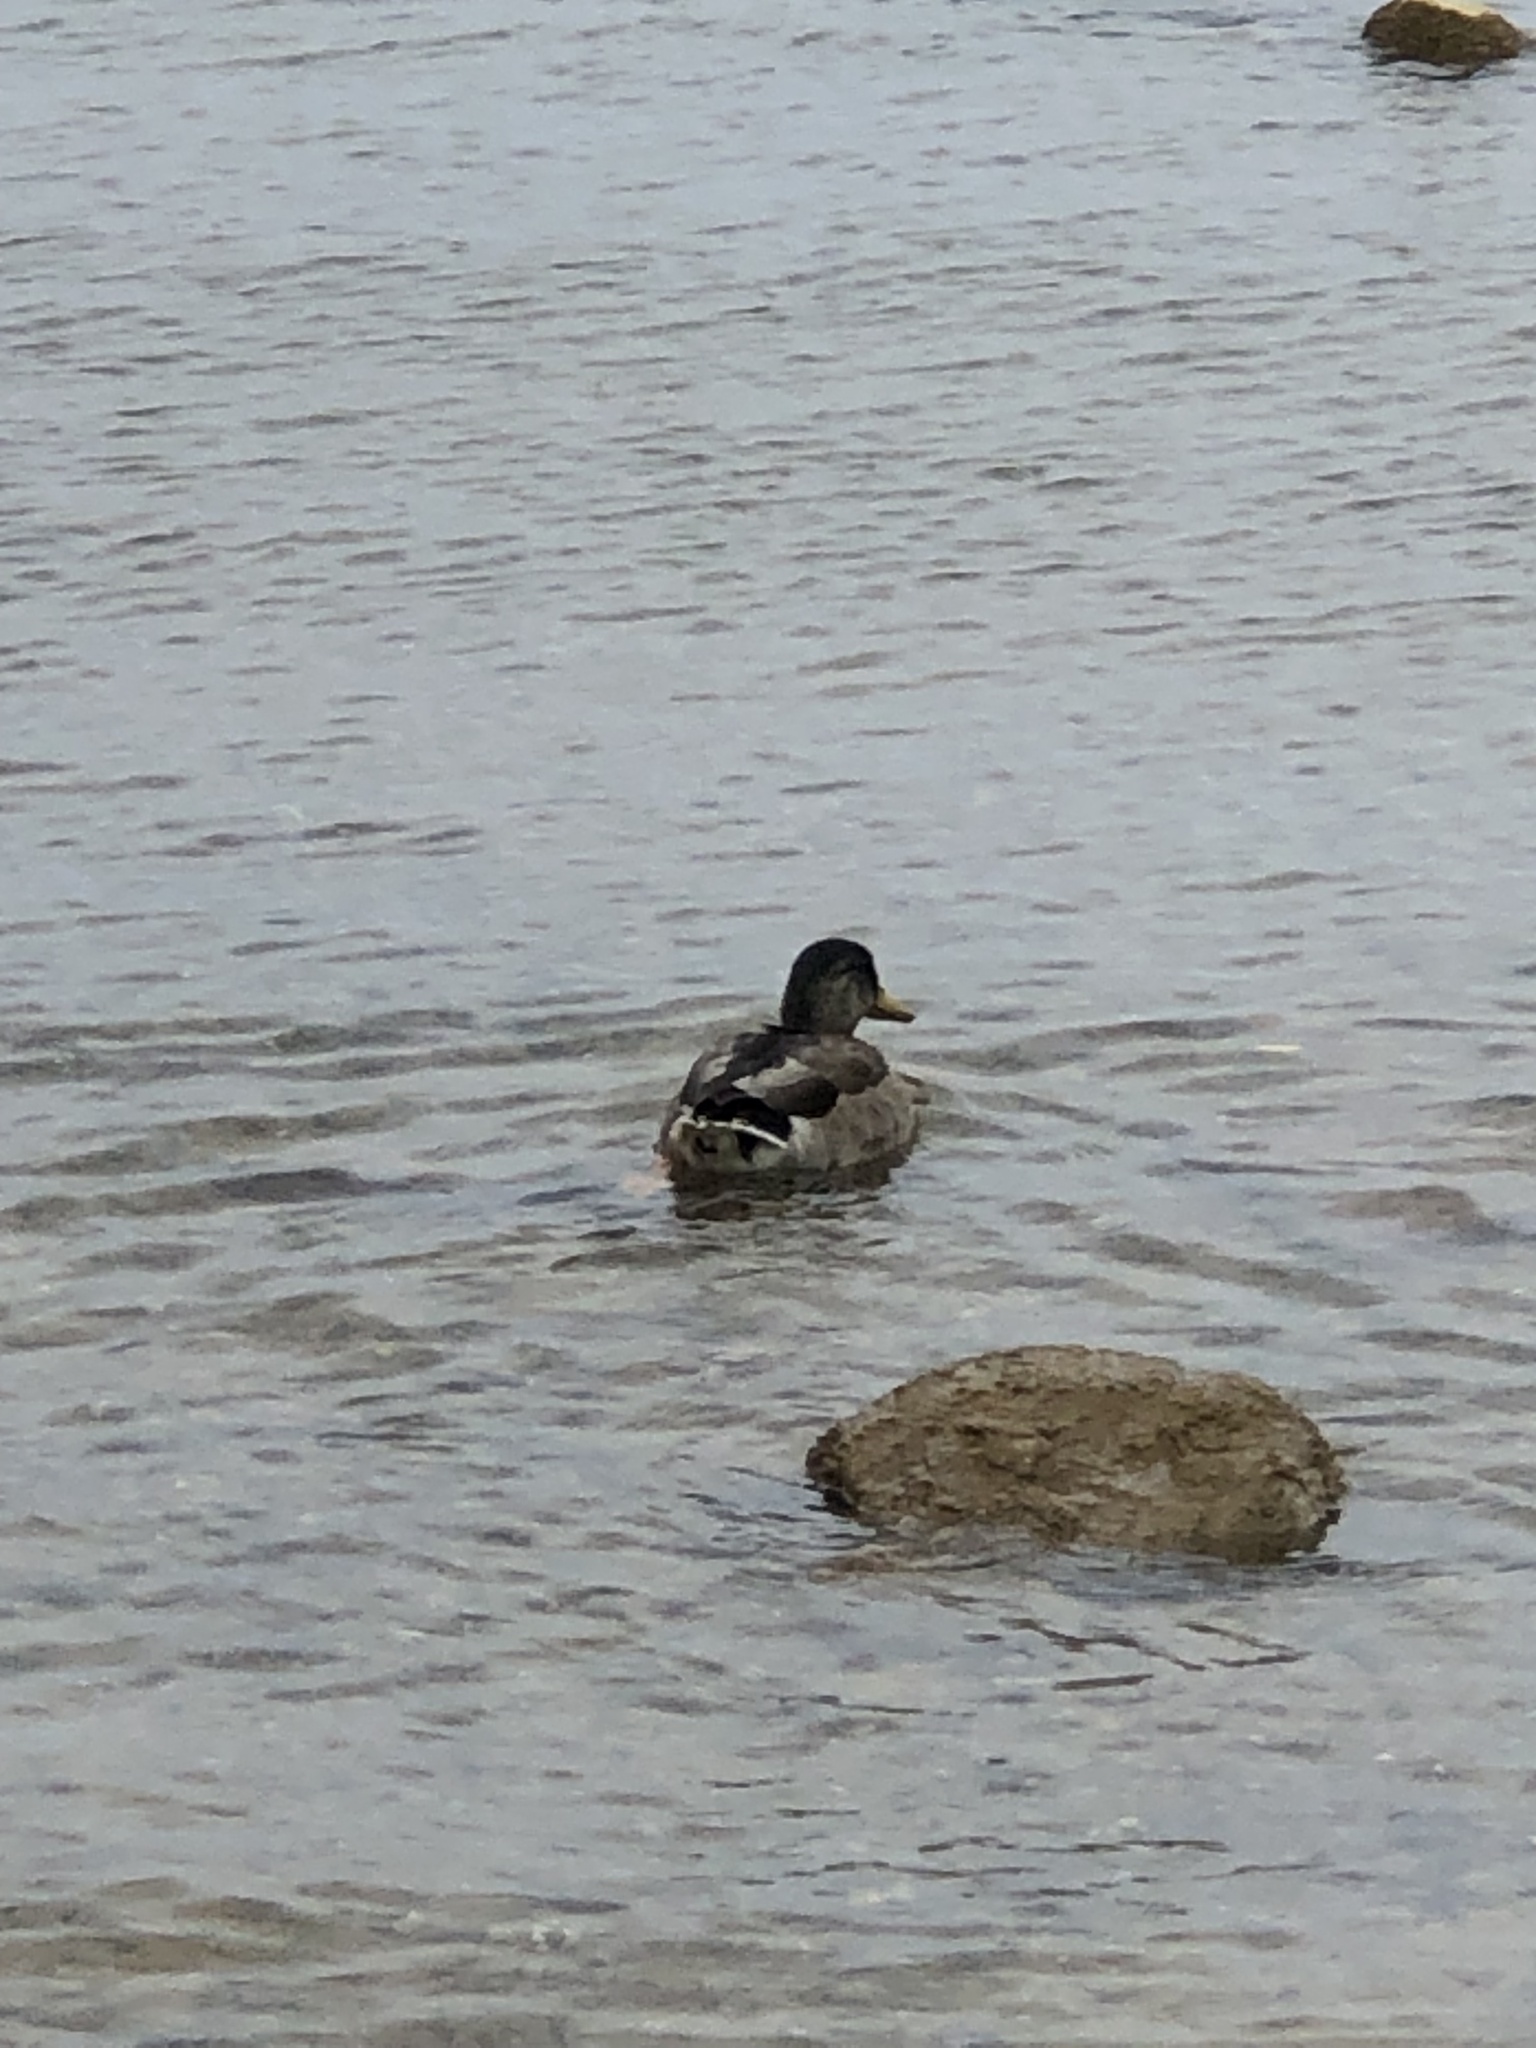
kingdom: Animalia
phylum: Chordata
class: Aves
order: Anseriformes
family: Anatidae
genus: Anas
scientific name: Anas platyrhynchos
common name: Mallard
